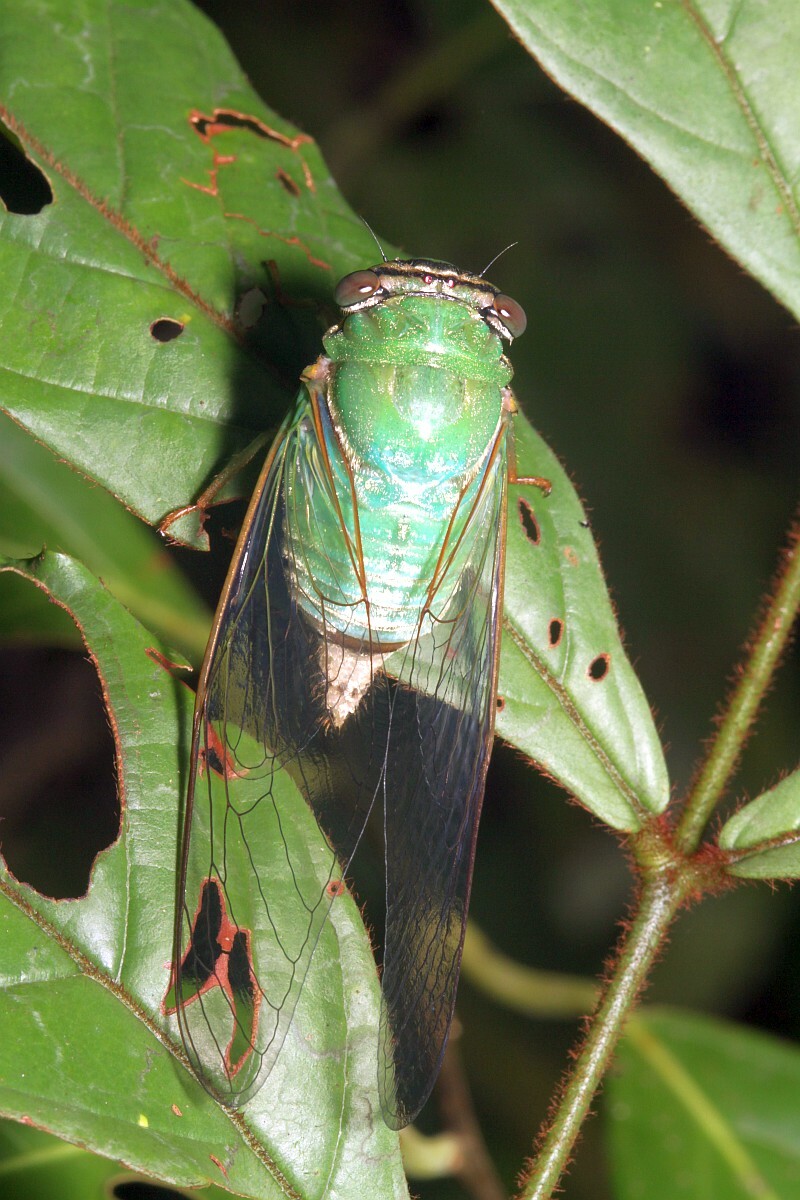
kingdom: Animalia
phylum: Arthropoda
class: Insecta
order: Hemiptera
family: Cicadidae
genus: Guyalna
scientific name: Guyalna glaucus
